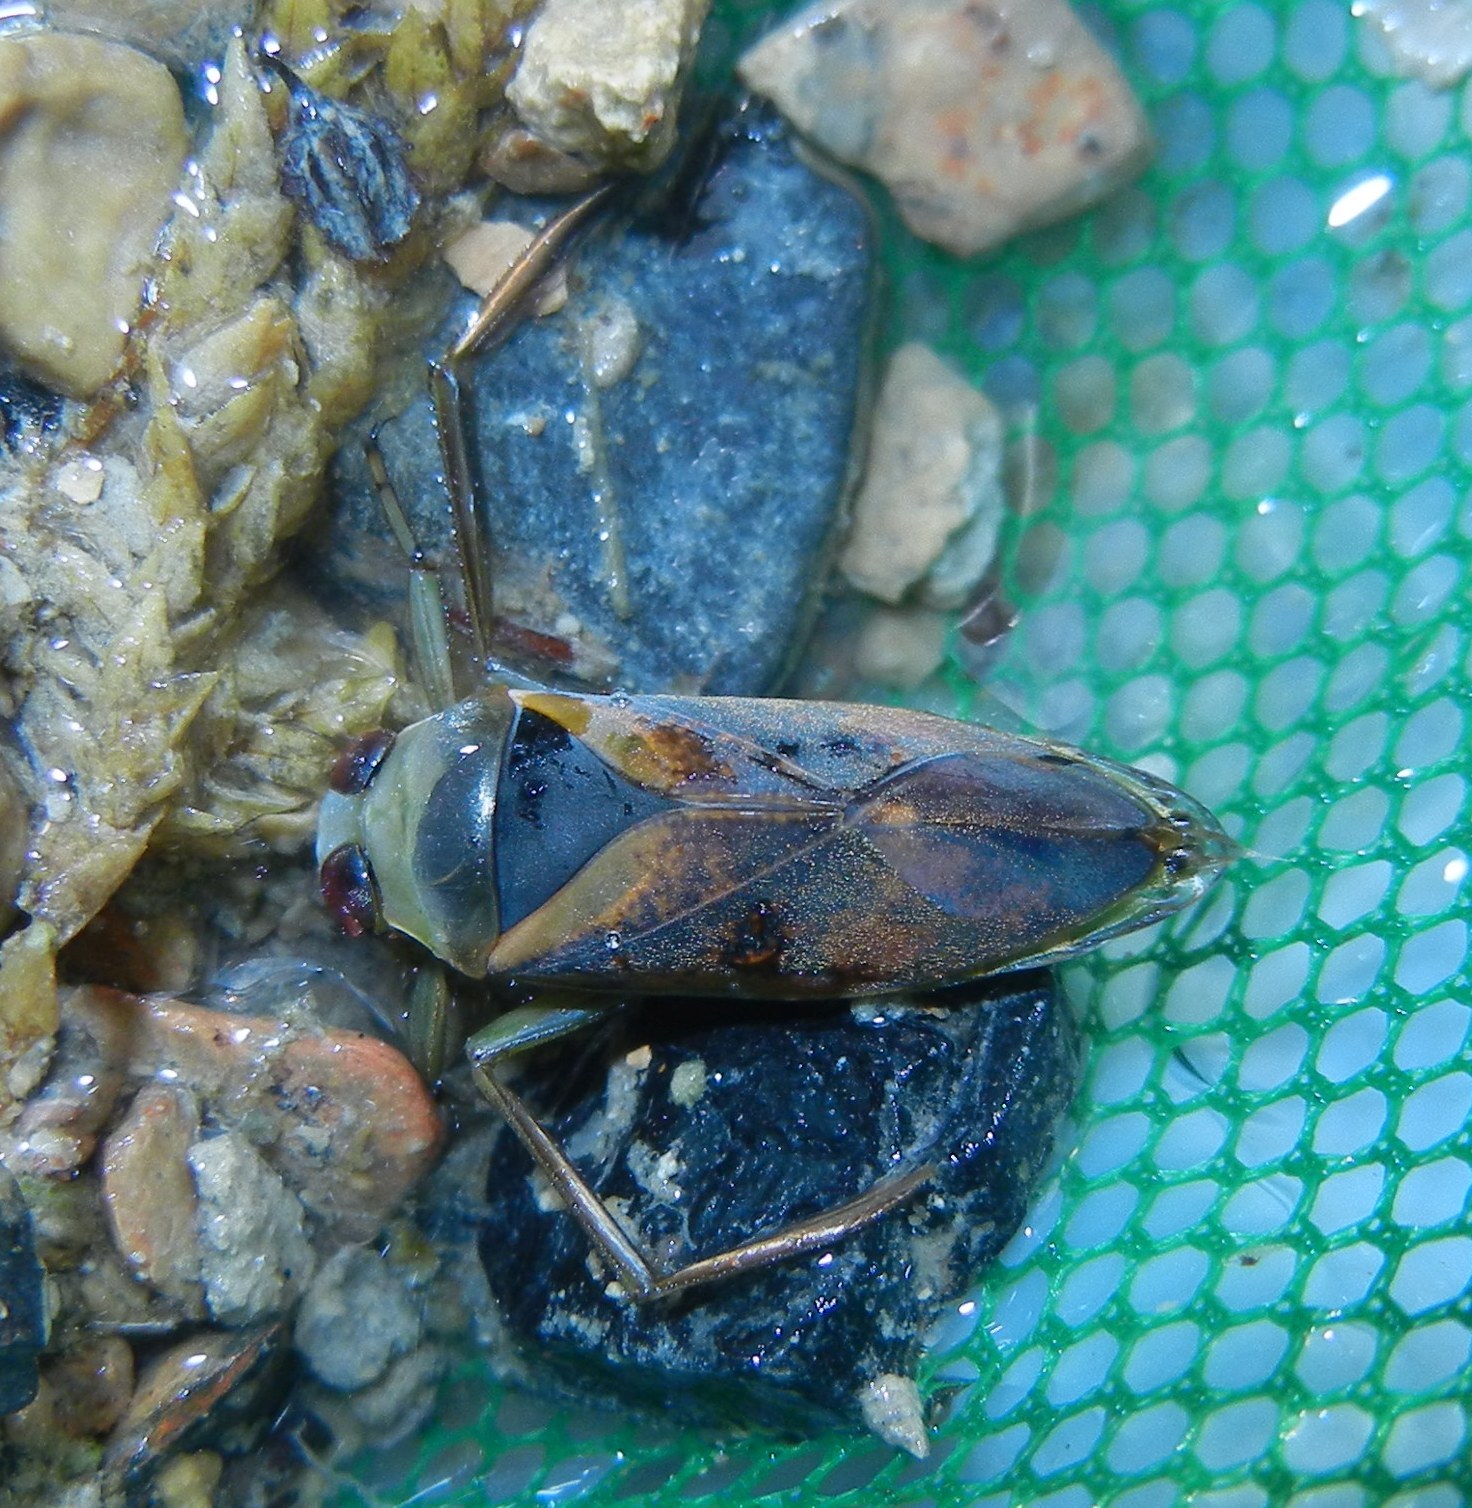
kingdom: Animalia
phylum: Arthropoda
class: Insecta
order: Hemiptera
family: Notonectidae
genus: Notonecta
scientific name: Notonecta maculata
